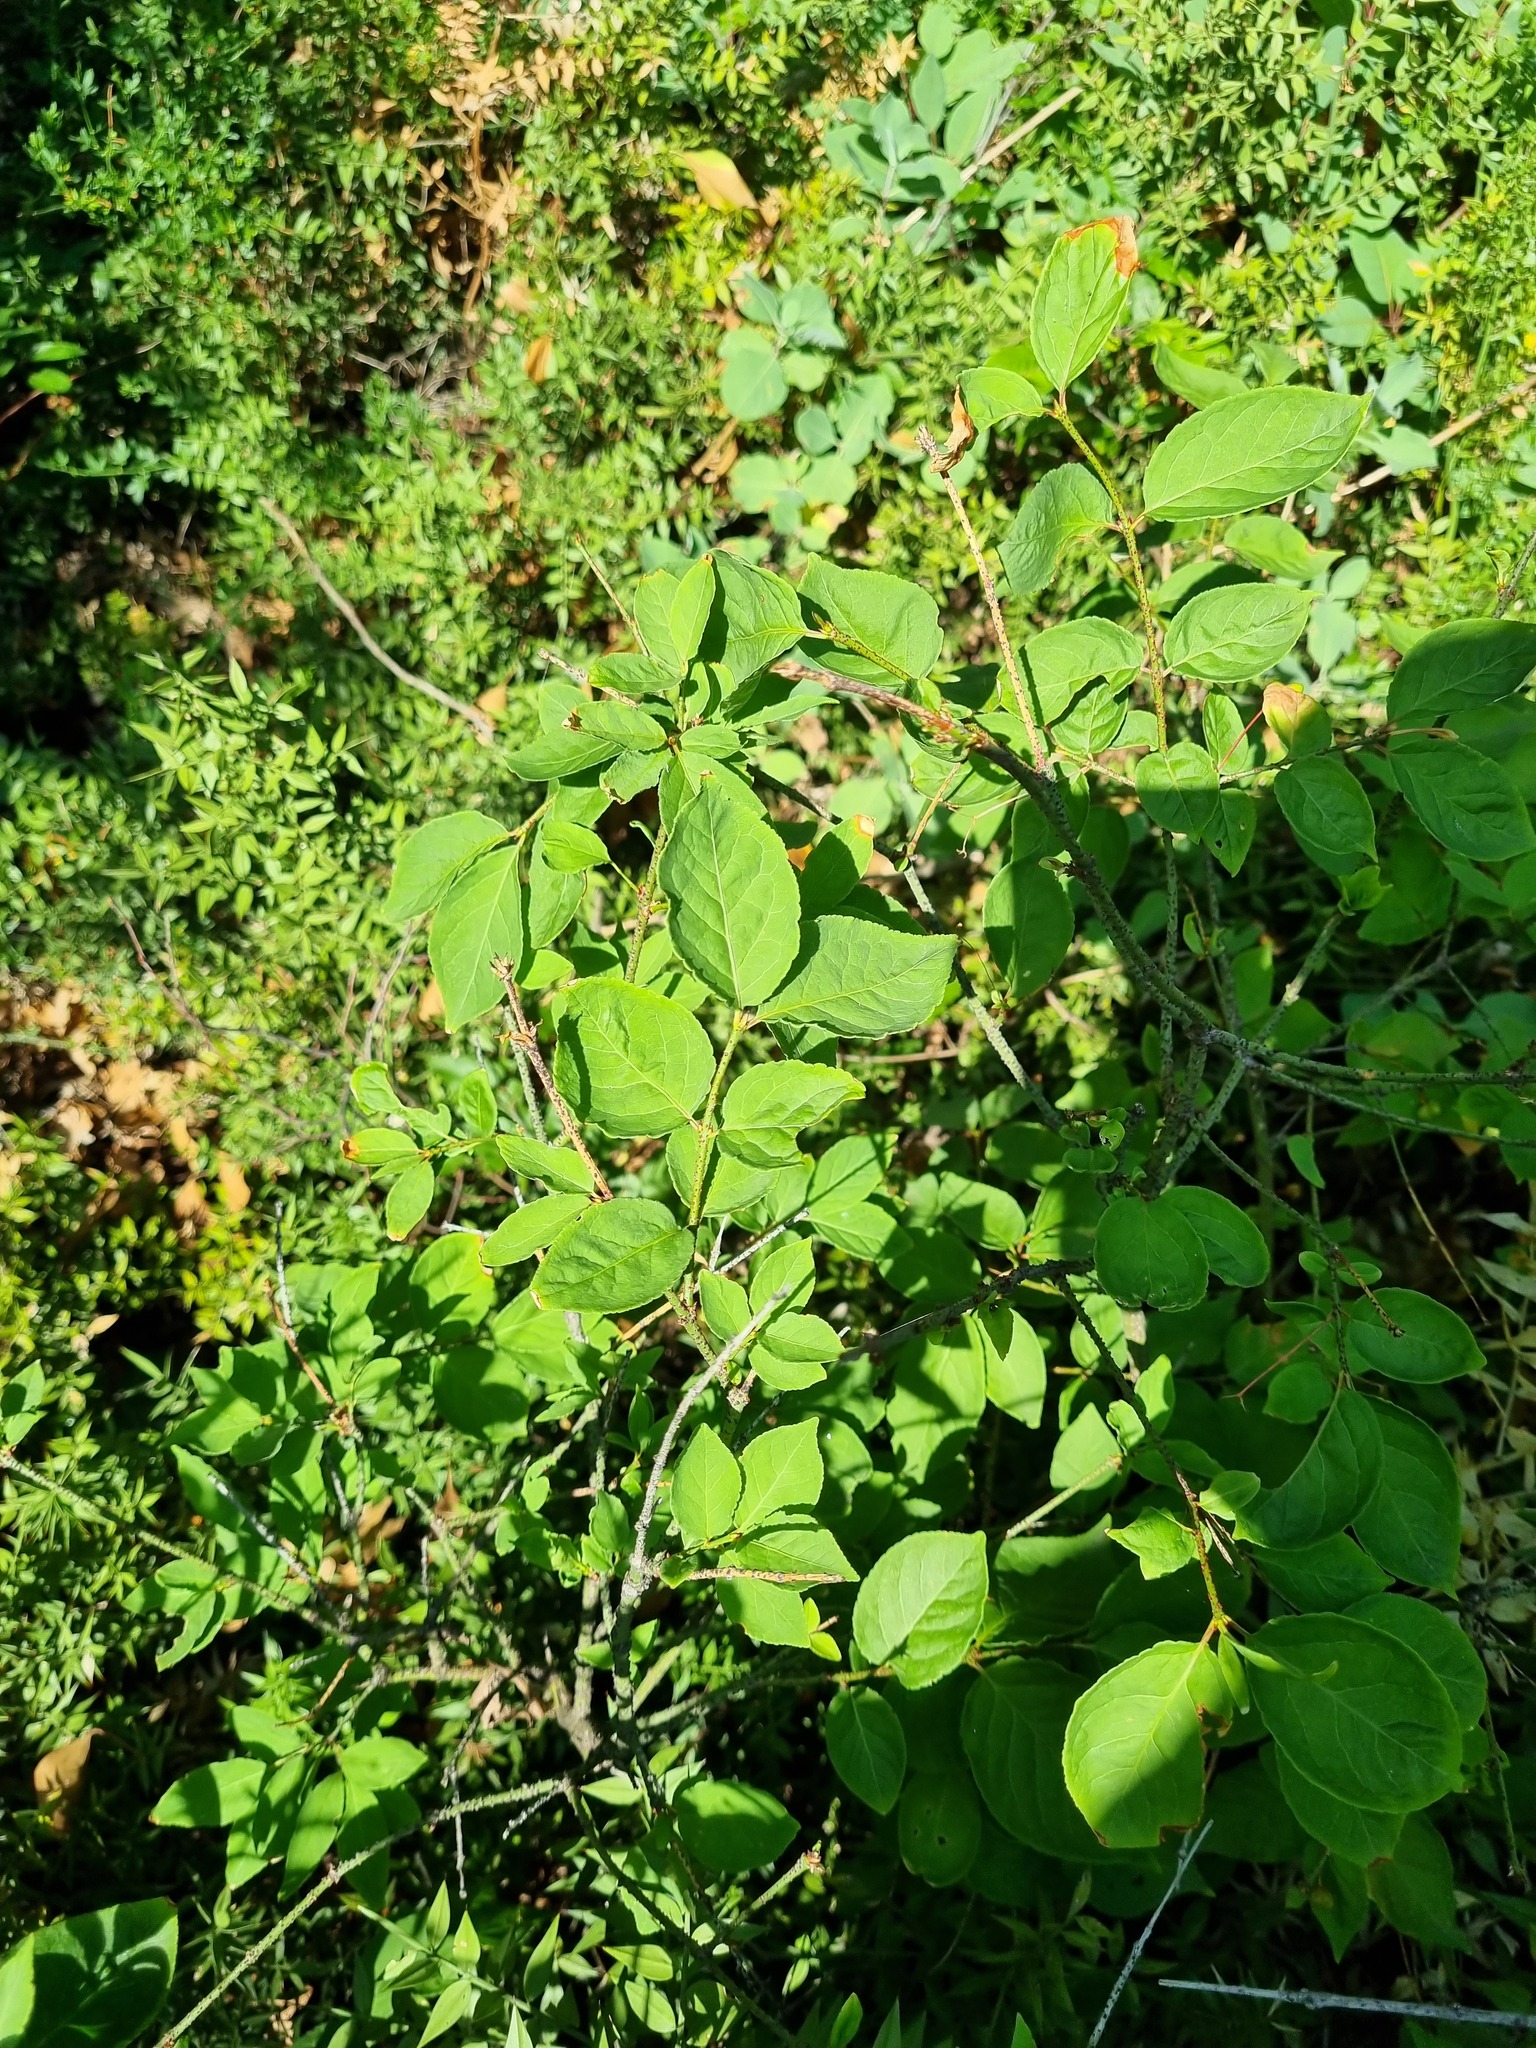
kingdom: Plantae
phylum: Tracheophyta
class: Magnoliopsida
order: Celastrales
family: Celastraceae
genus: Euonymus
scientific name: Euonymus verrucosus
